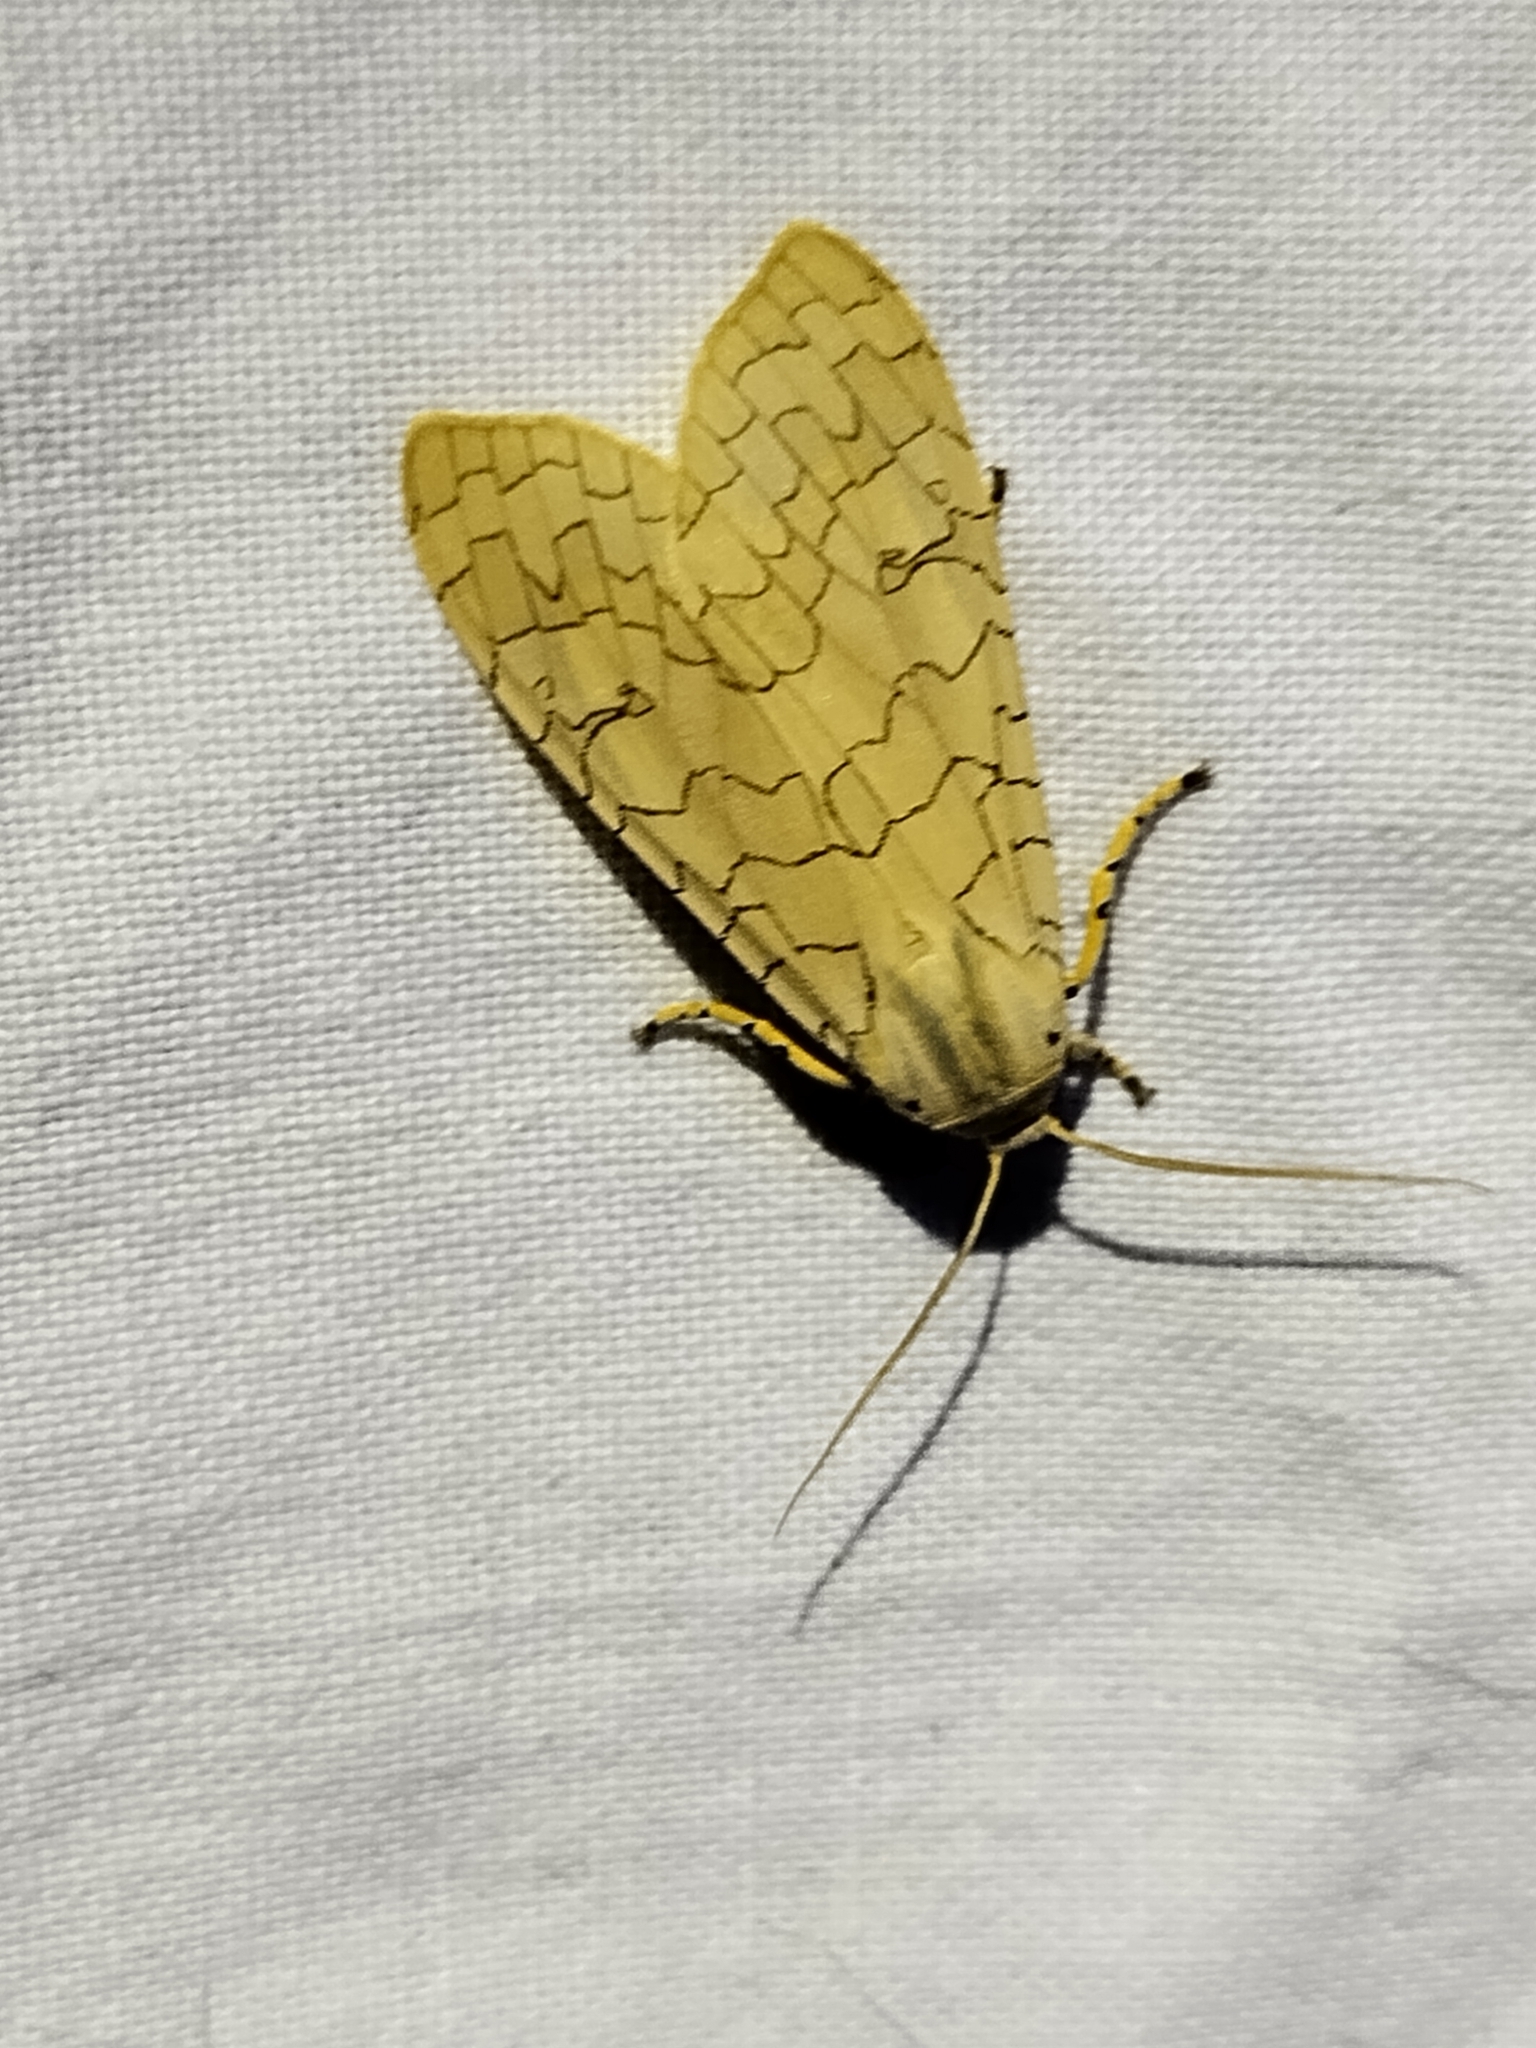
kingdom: Animalia
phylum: Arthropoda
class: Insecta
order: Lepidoptera
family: Erebidae
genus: Halysidota
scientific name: Halysidota
